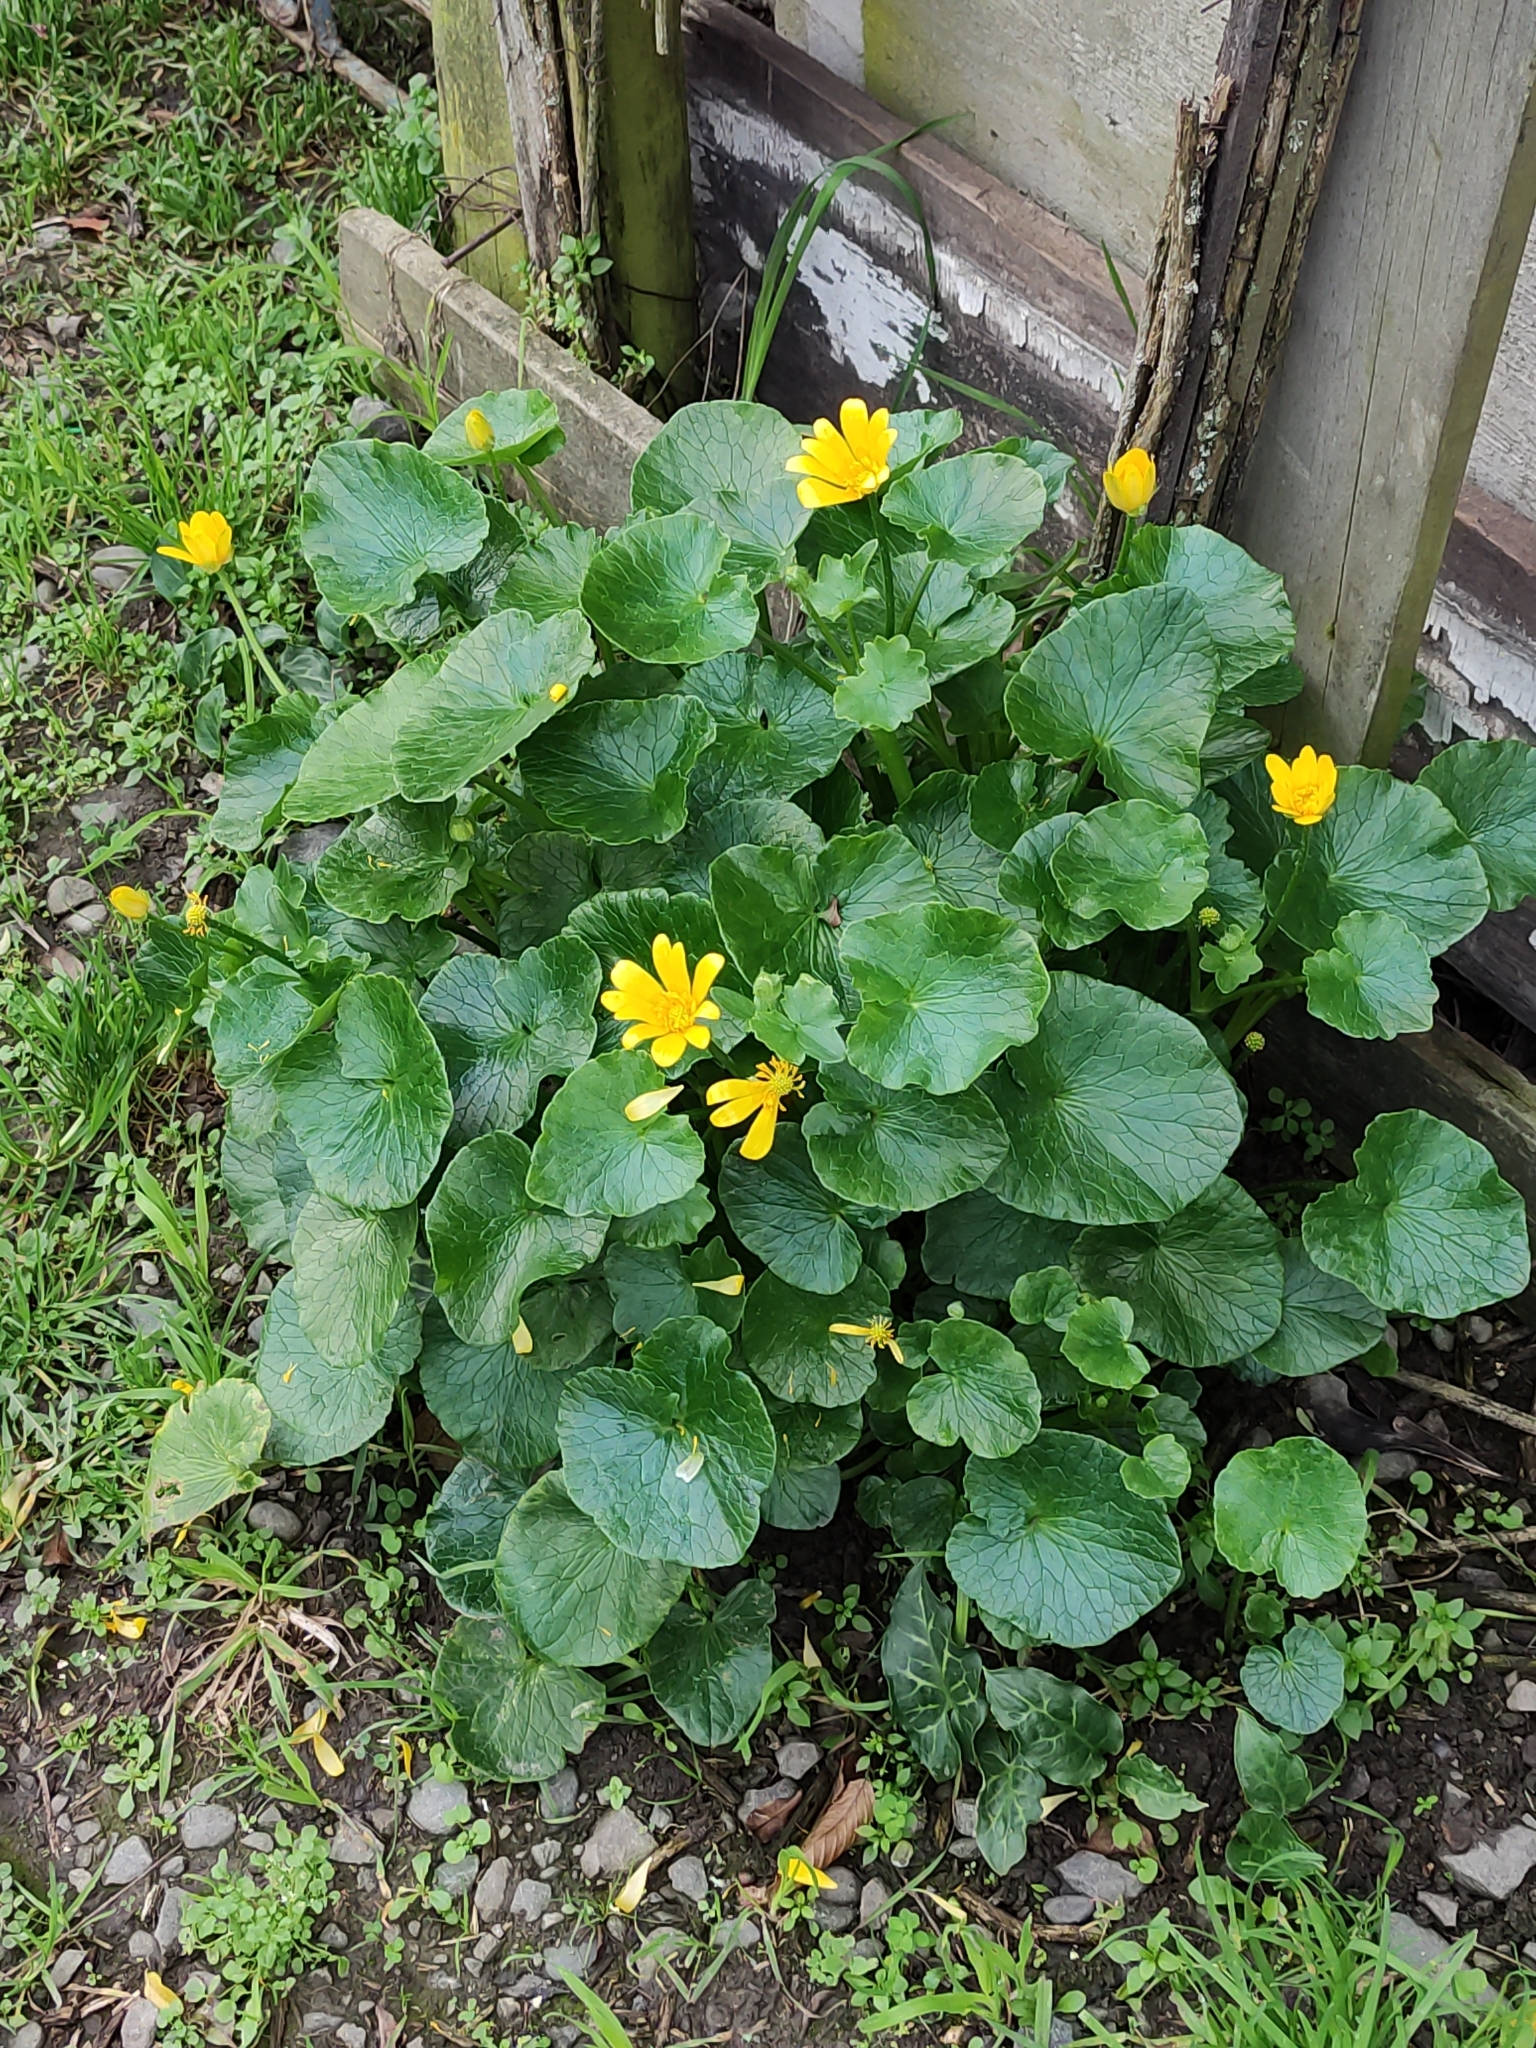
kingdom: Plantae
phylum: Tracheophyta
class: Magnoliopsida
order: Ranunculales
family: Ranunculaceae
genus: Ficaria
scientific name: Ficaria verna
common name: Lesser celandine
